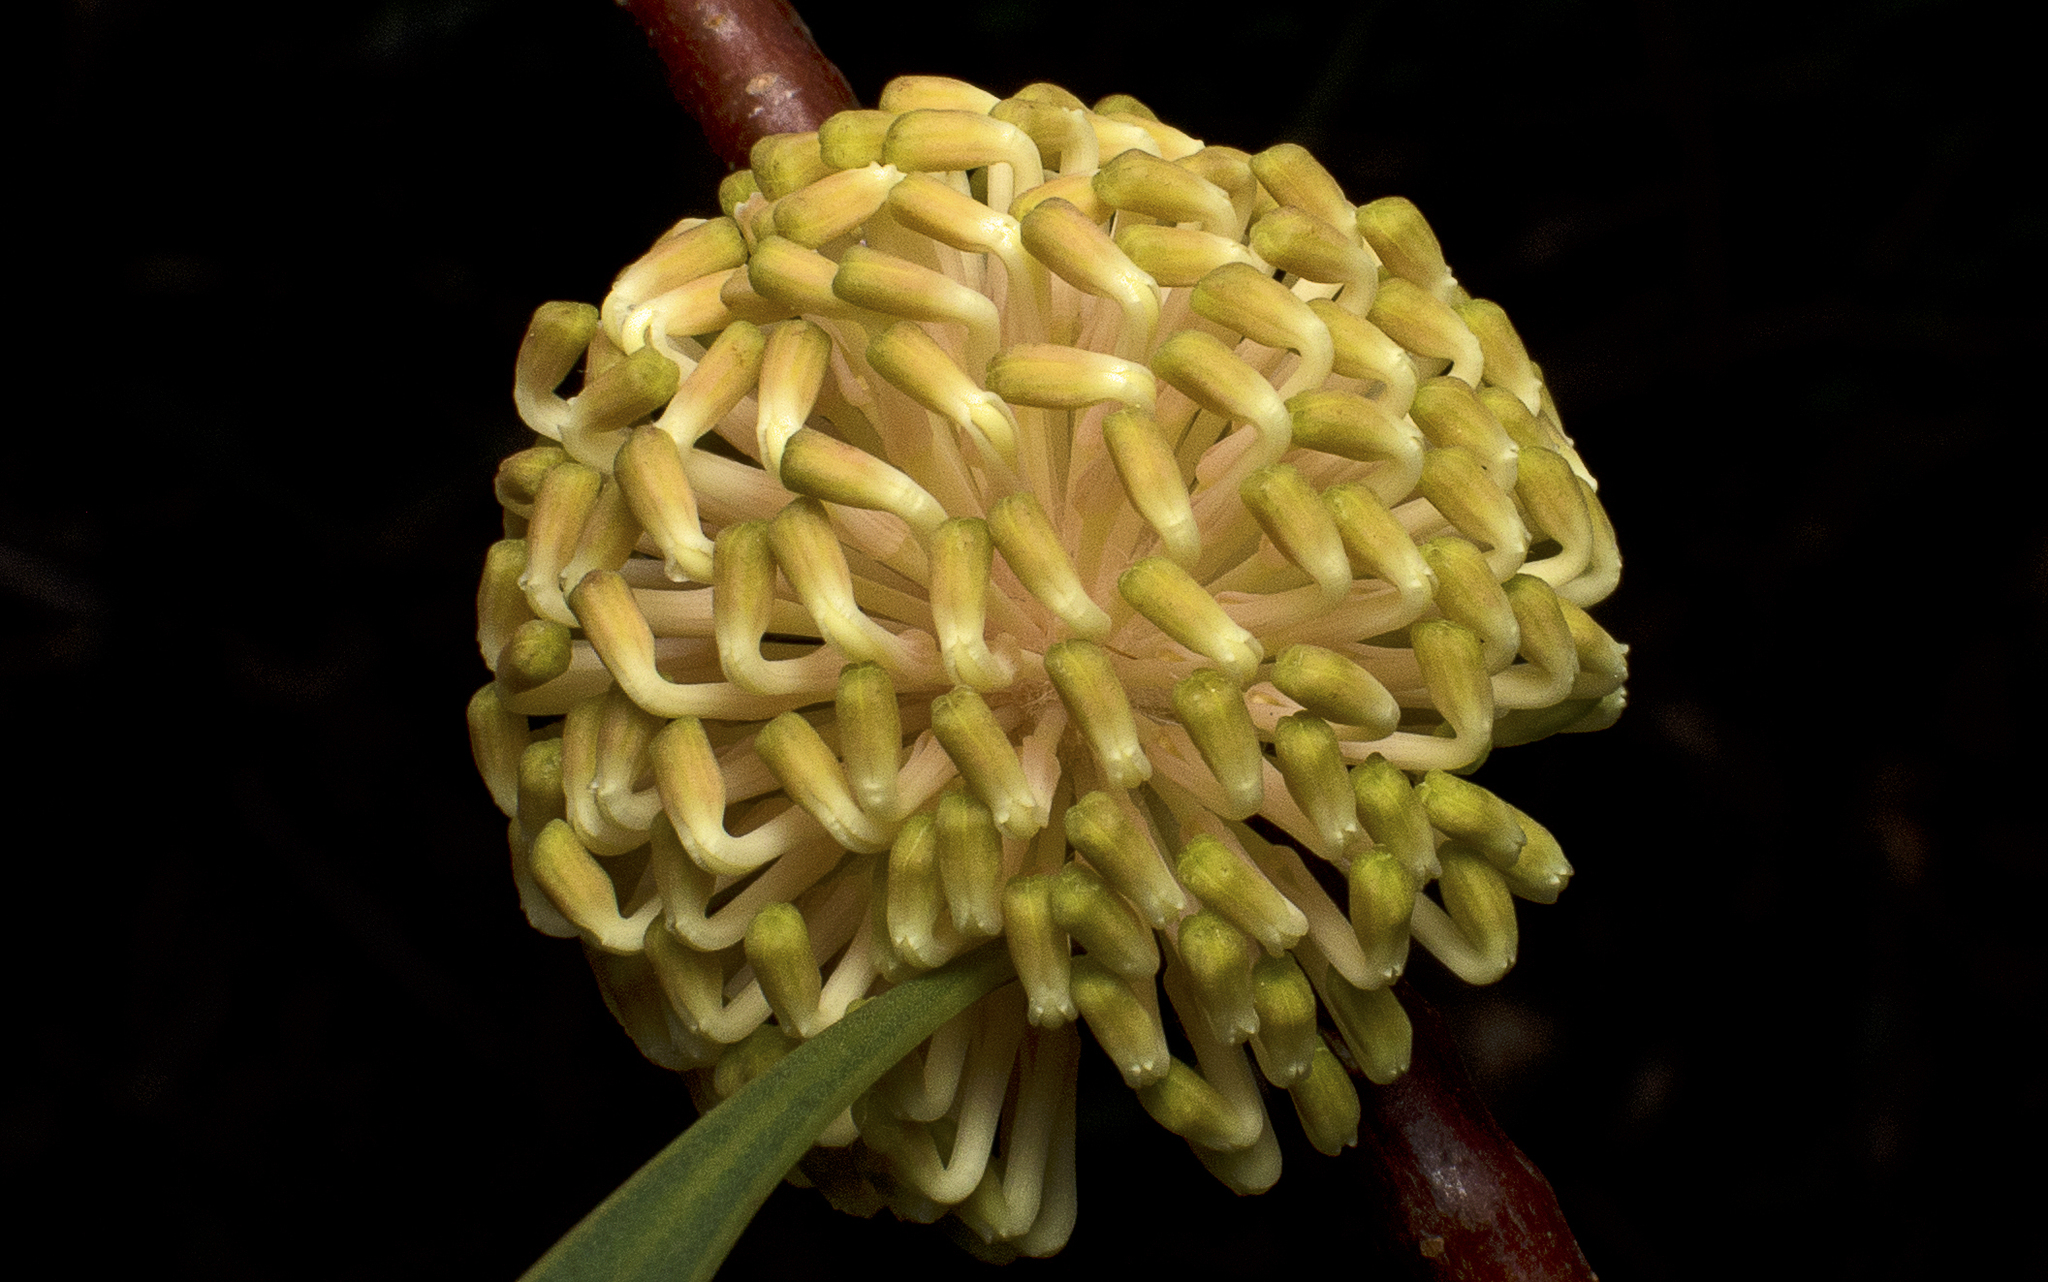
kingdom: Plantae
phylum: Tracheophyta
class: Magnoliopsida
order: Proteales
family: Proteaceae
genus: Hakea
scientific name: Hakea laurina
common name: Cushion hakea
